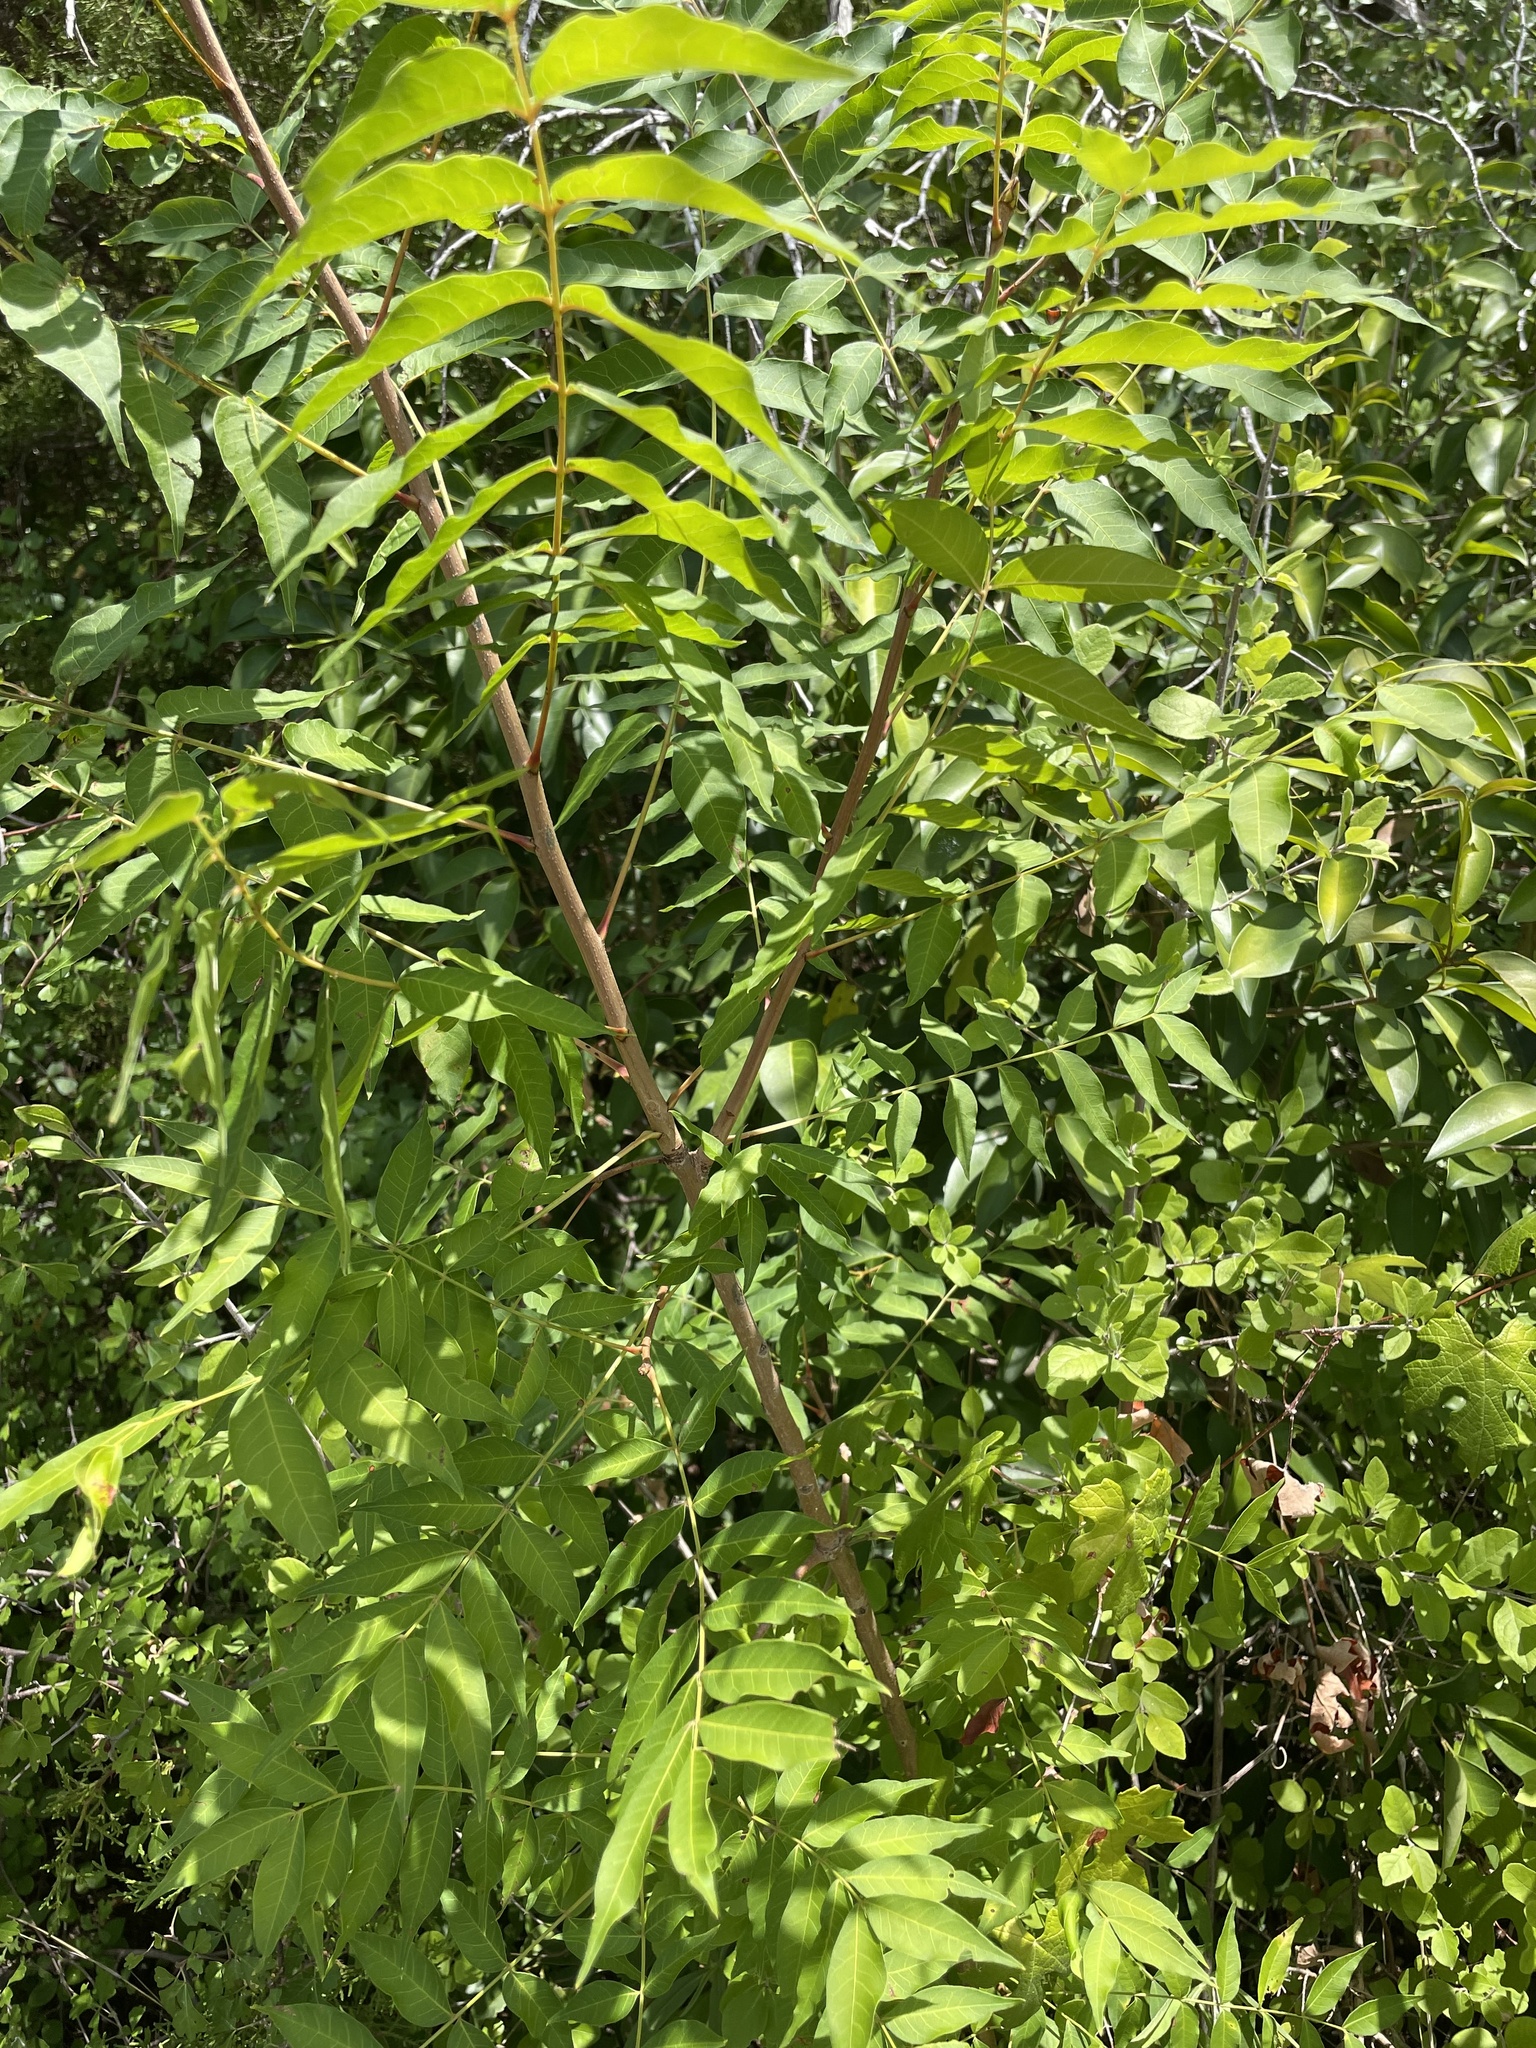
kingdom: Plantae
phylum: Tracheophyta
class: Magnoliopsida
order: Sapindales
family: Anacardiaceae
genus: Pistacia
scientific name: Pistacia chinensis
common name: Chinese pistache
